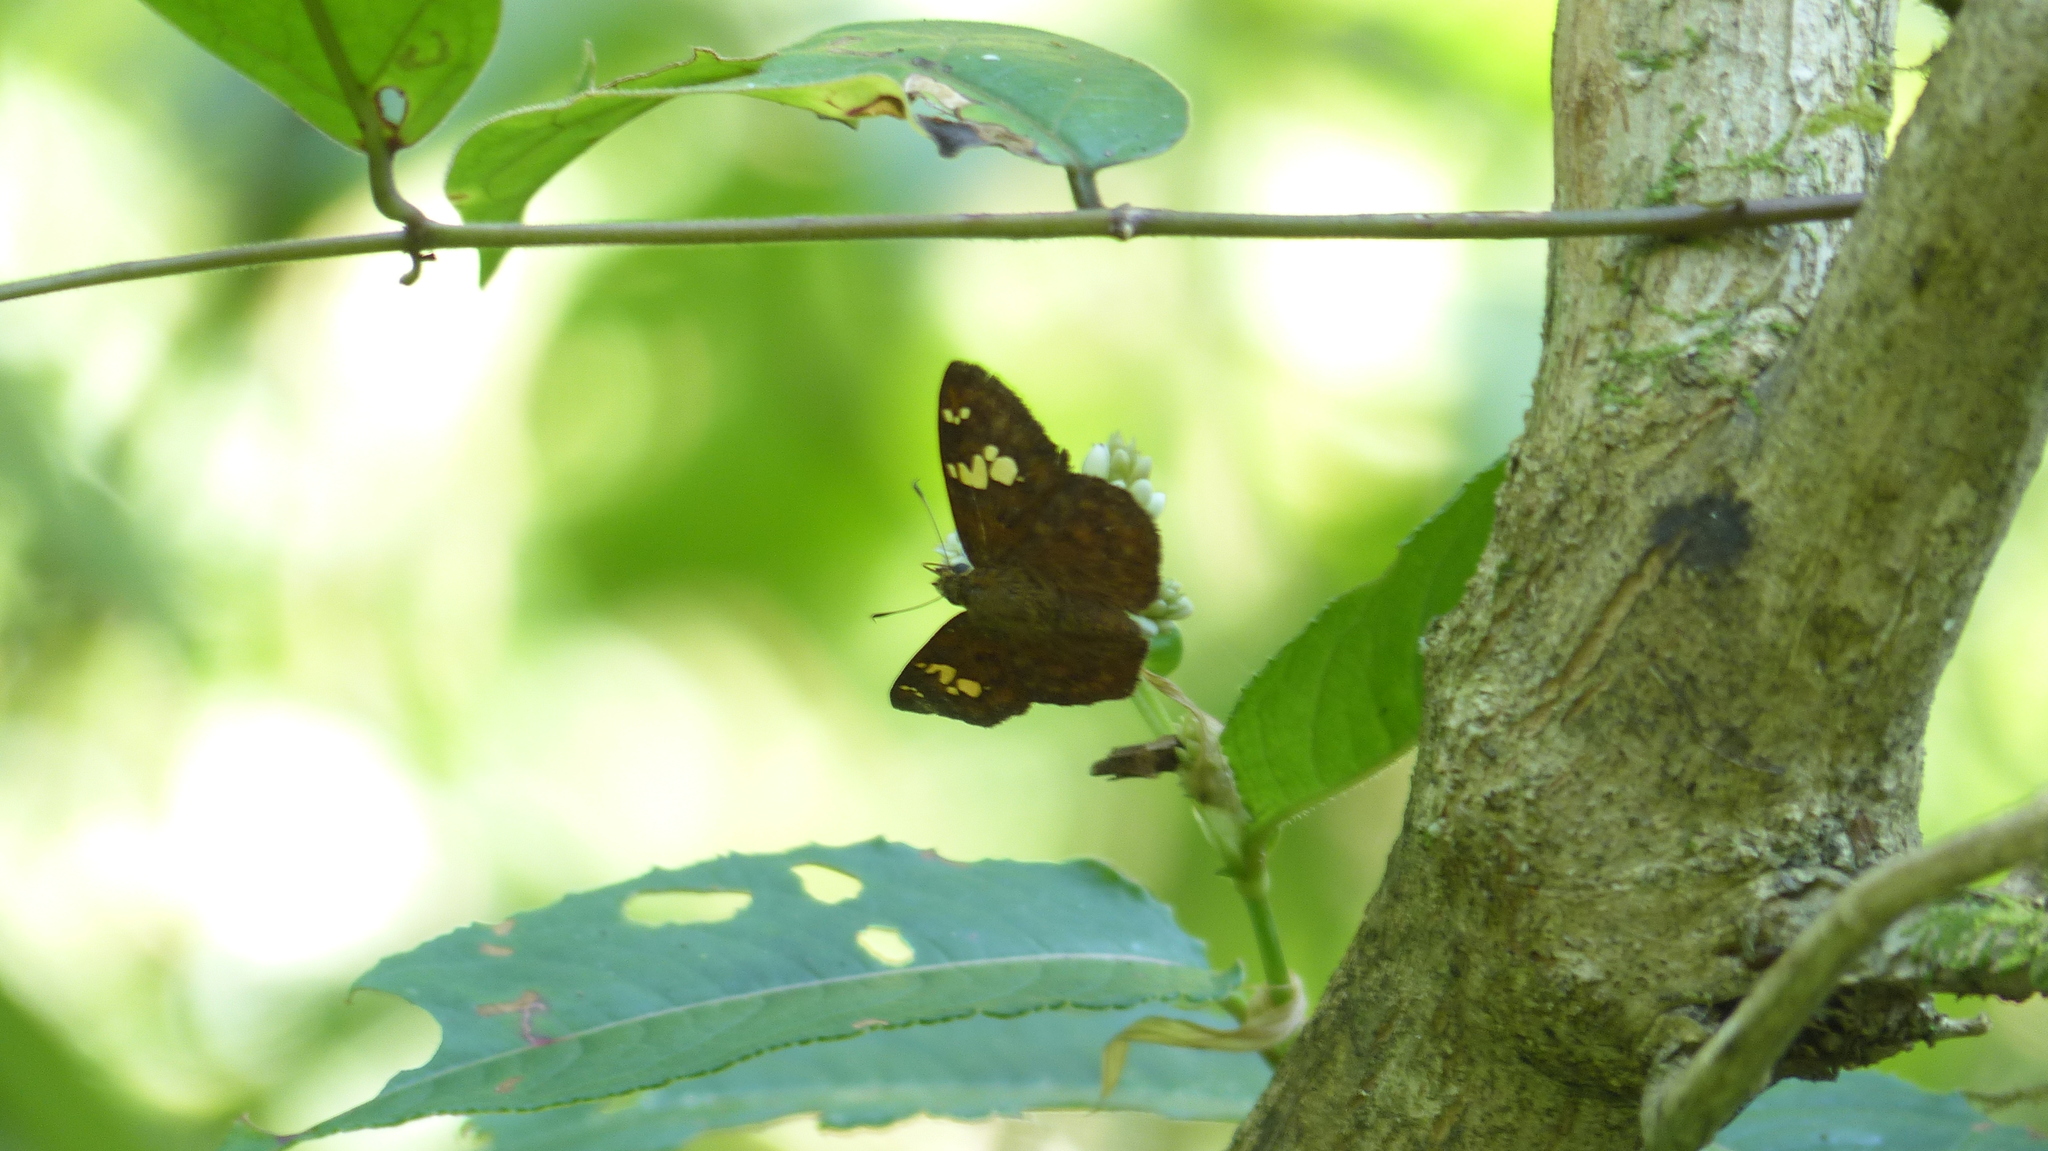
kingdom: Animalia
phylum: Arthropoda
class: Insecta
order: Lepidoptera
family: Hesperiidae
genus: Pseudocoladenia
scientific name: Pseudocoladenia dan
